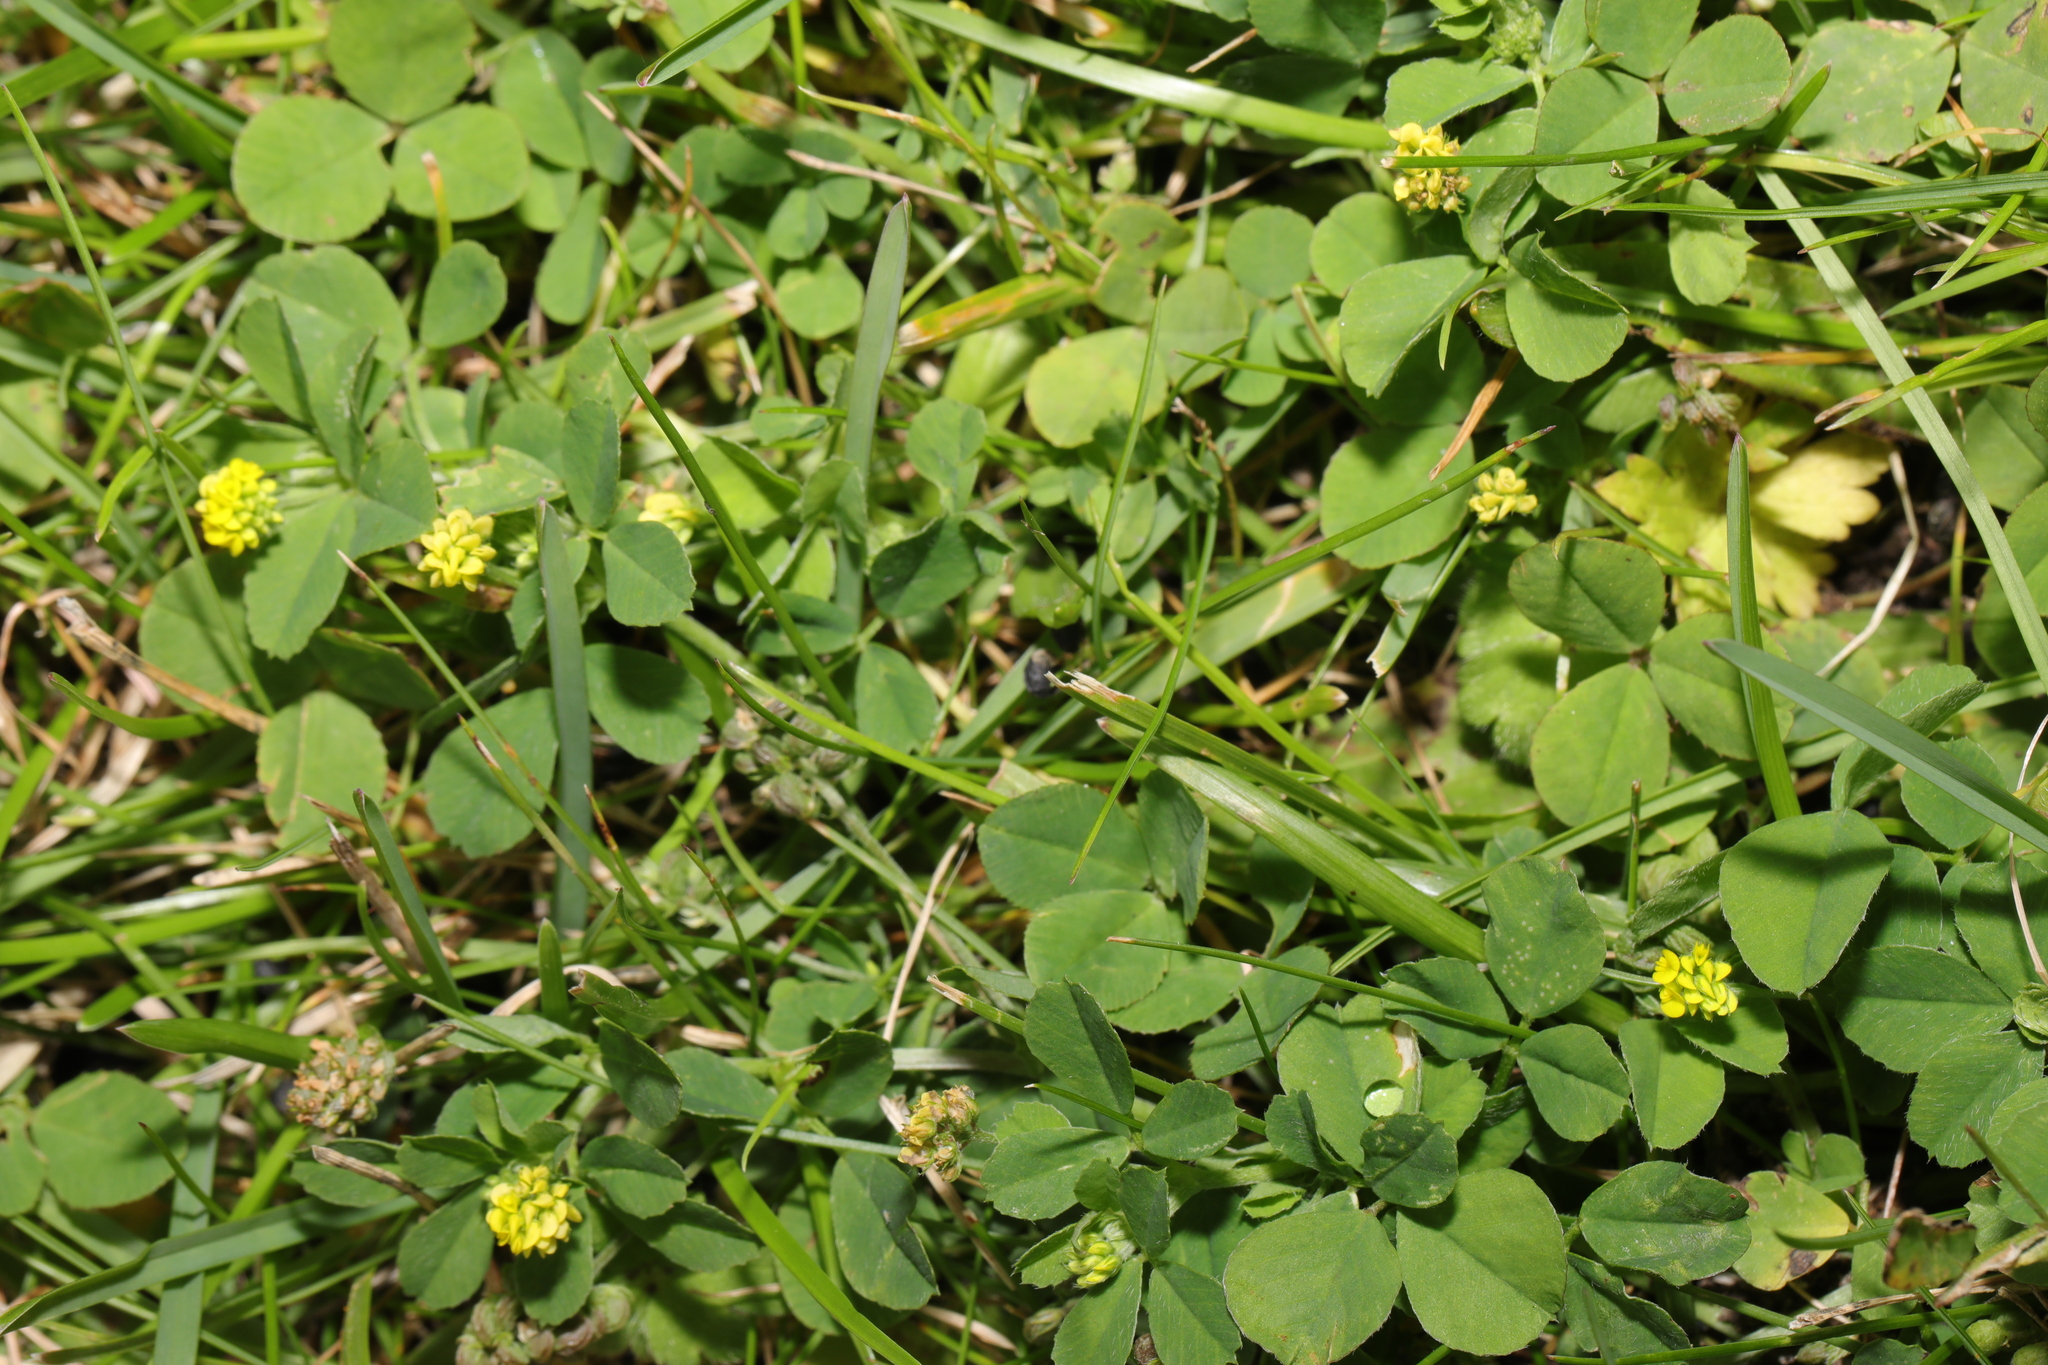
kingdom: Plantae
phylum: Tracheophyta
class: Magnoliopsida
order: Fabales
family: Fabaceae
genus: Medicago
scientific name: Medicago lupulina
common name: Black medick
